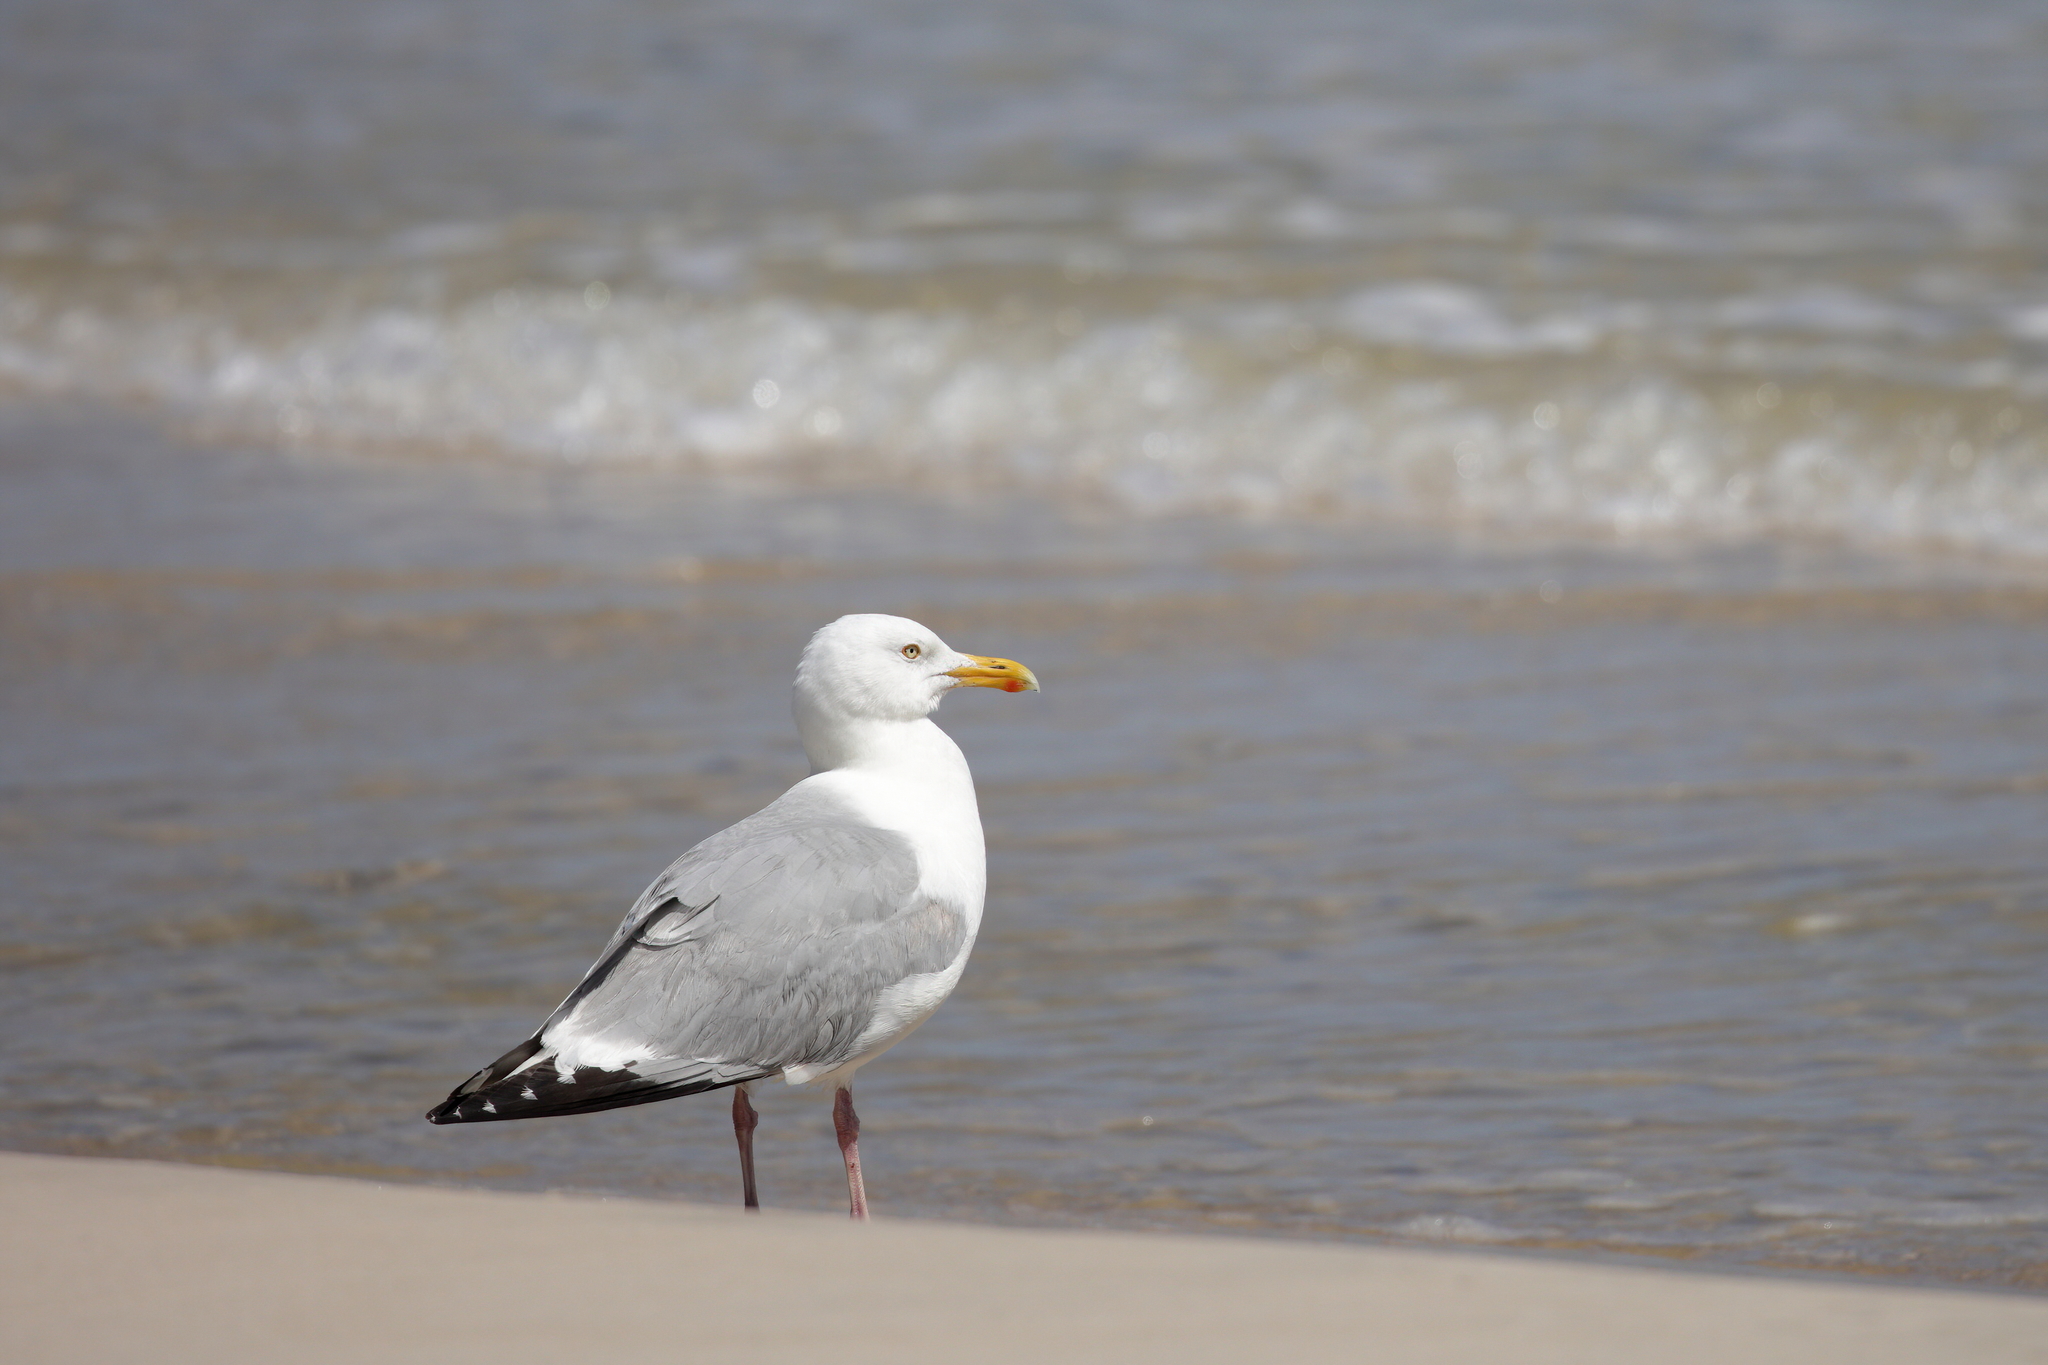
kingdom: Animalia
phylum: Chordata
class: Aves
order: Charadriiformes
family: Laridae
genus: Larus
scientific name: Larus argentatus
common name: Herring gull
